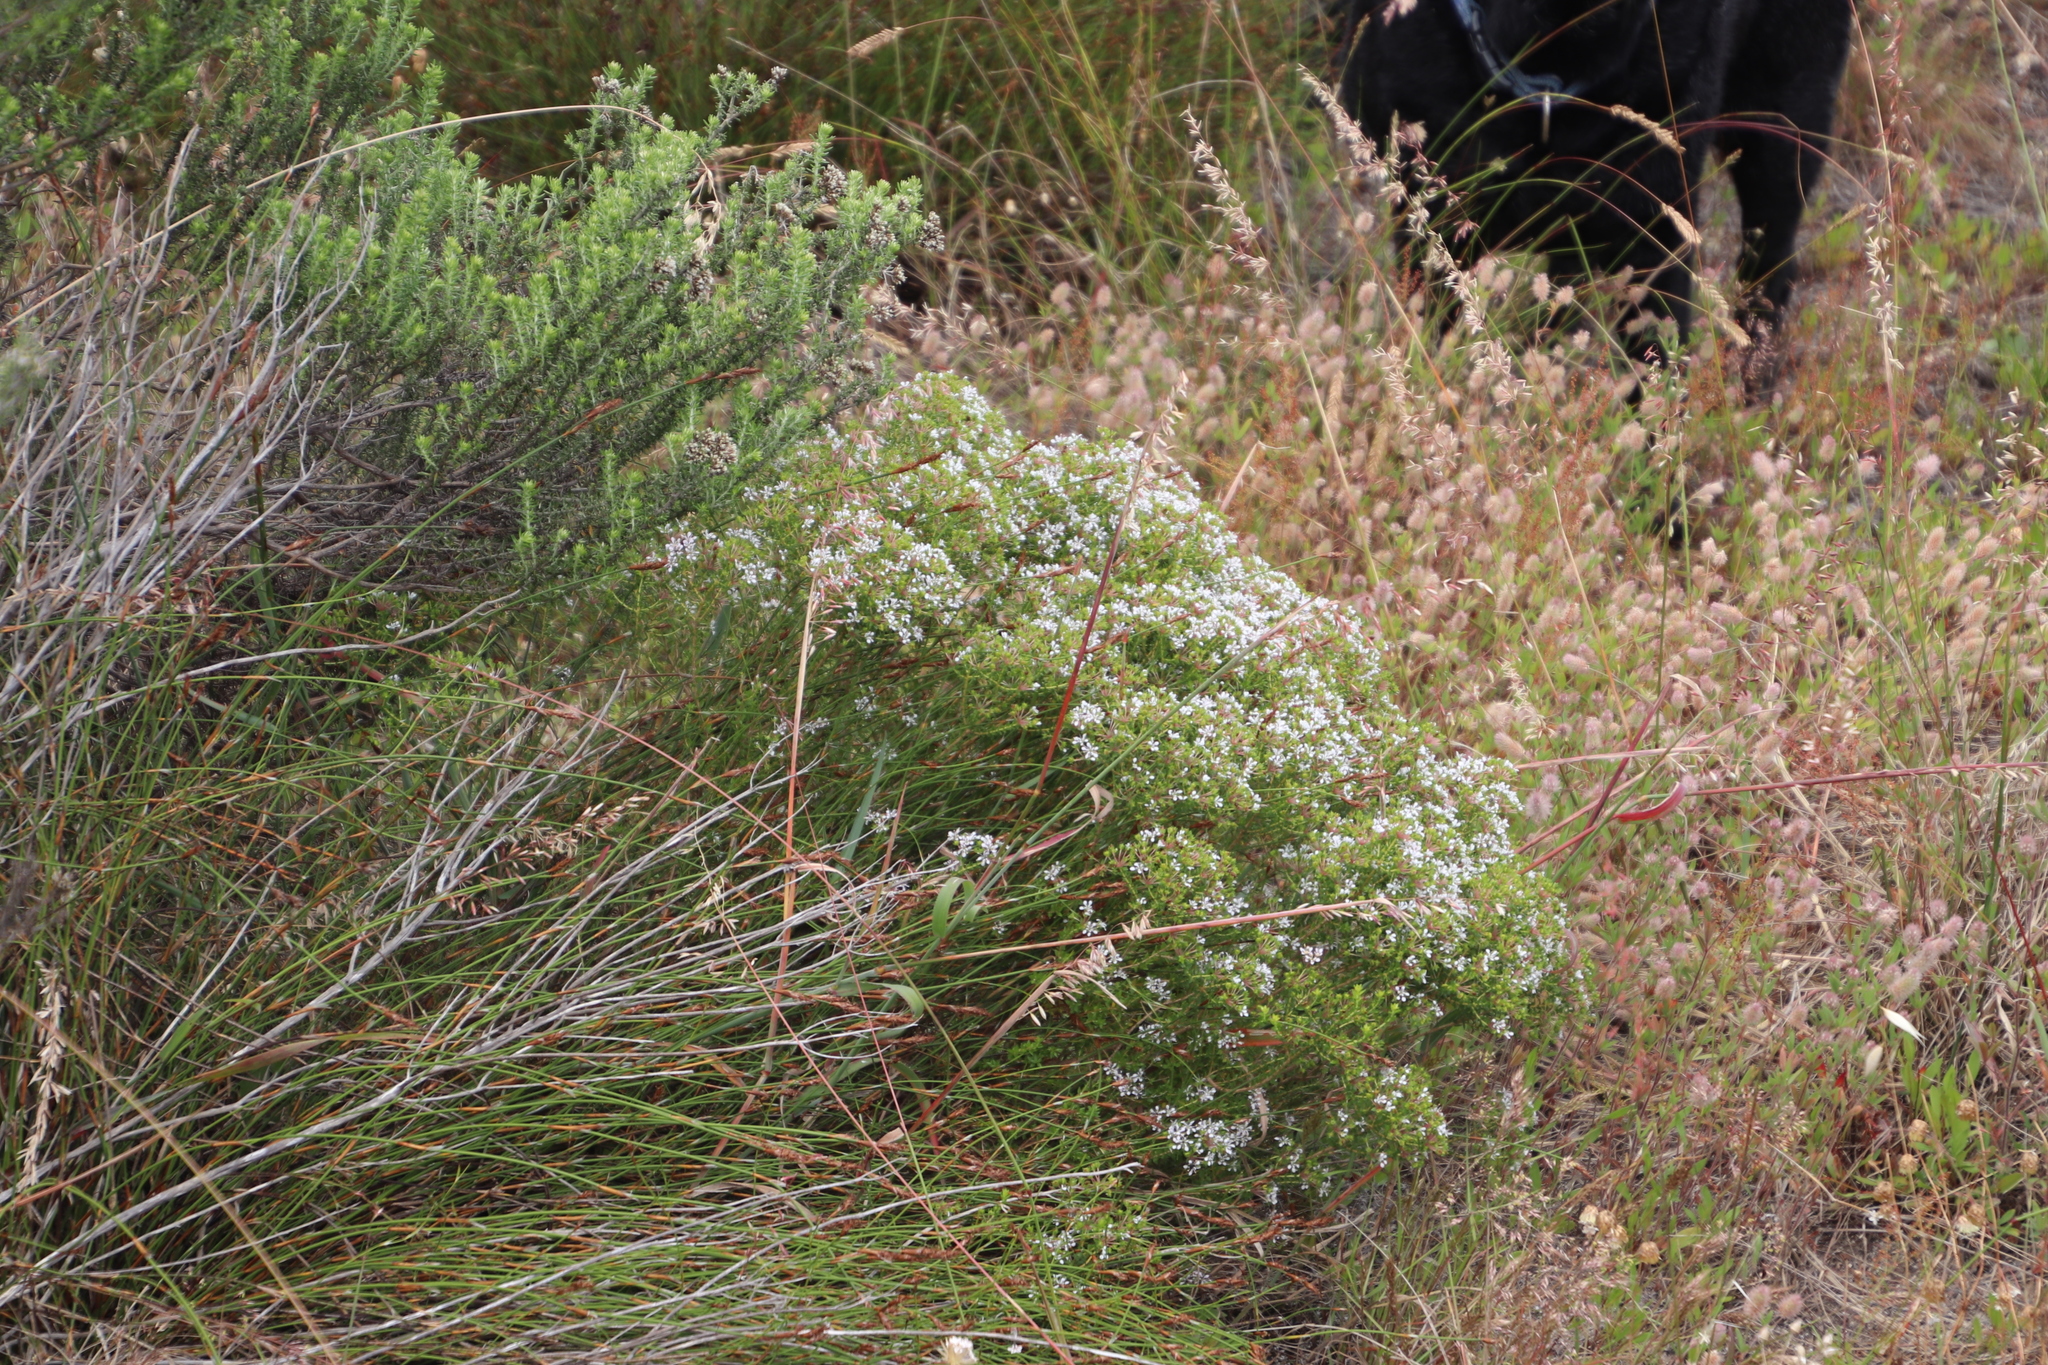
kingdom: Plantae
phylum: Tracheophyta
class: Magnoliopsida
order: Sapindales
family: Rutaceae
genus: Agathosma
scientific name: Agathosma glabrata
